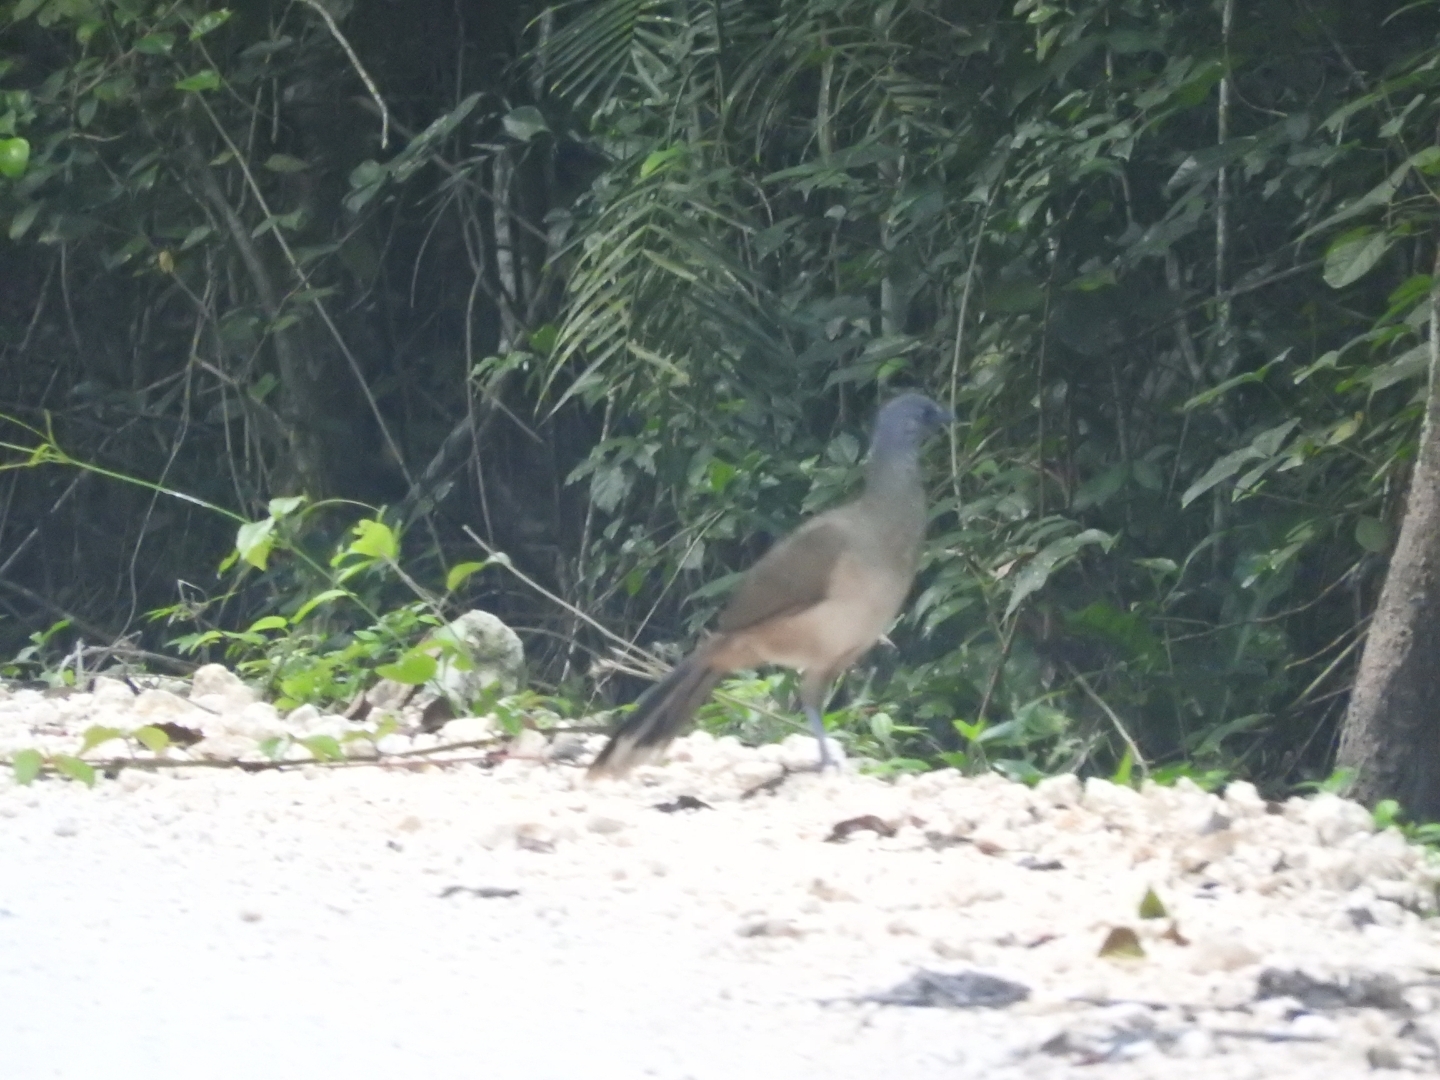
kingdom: Animalia
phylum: Chordata
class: Aves
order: Galliformes
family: Cracidae
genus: Ortalis
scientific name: Ortalis vetula
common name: Plain chachalaca
